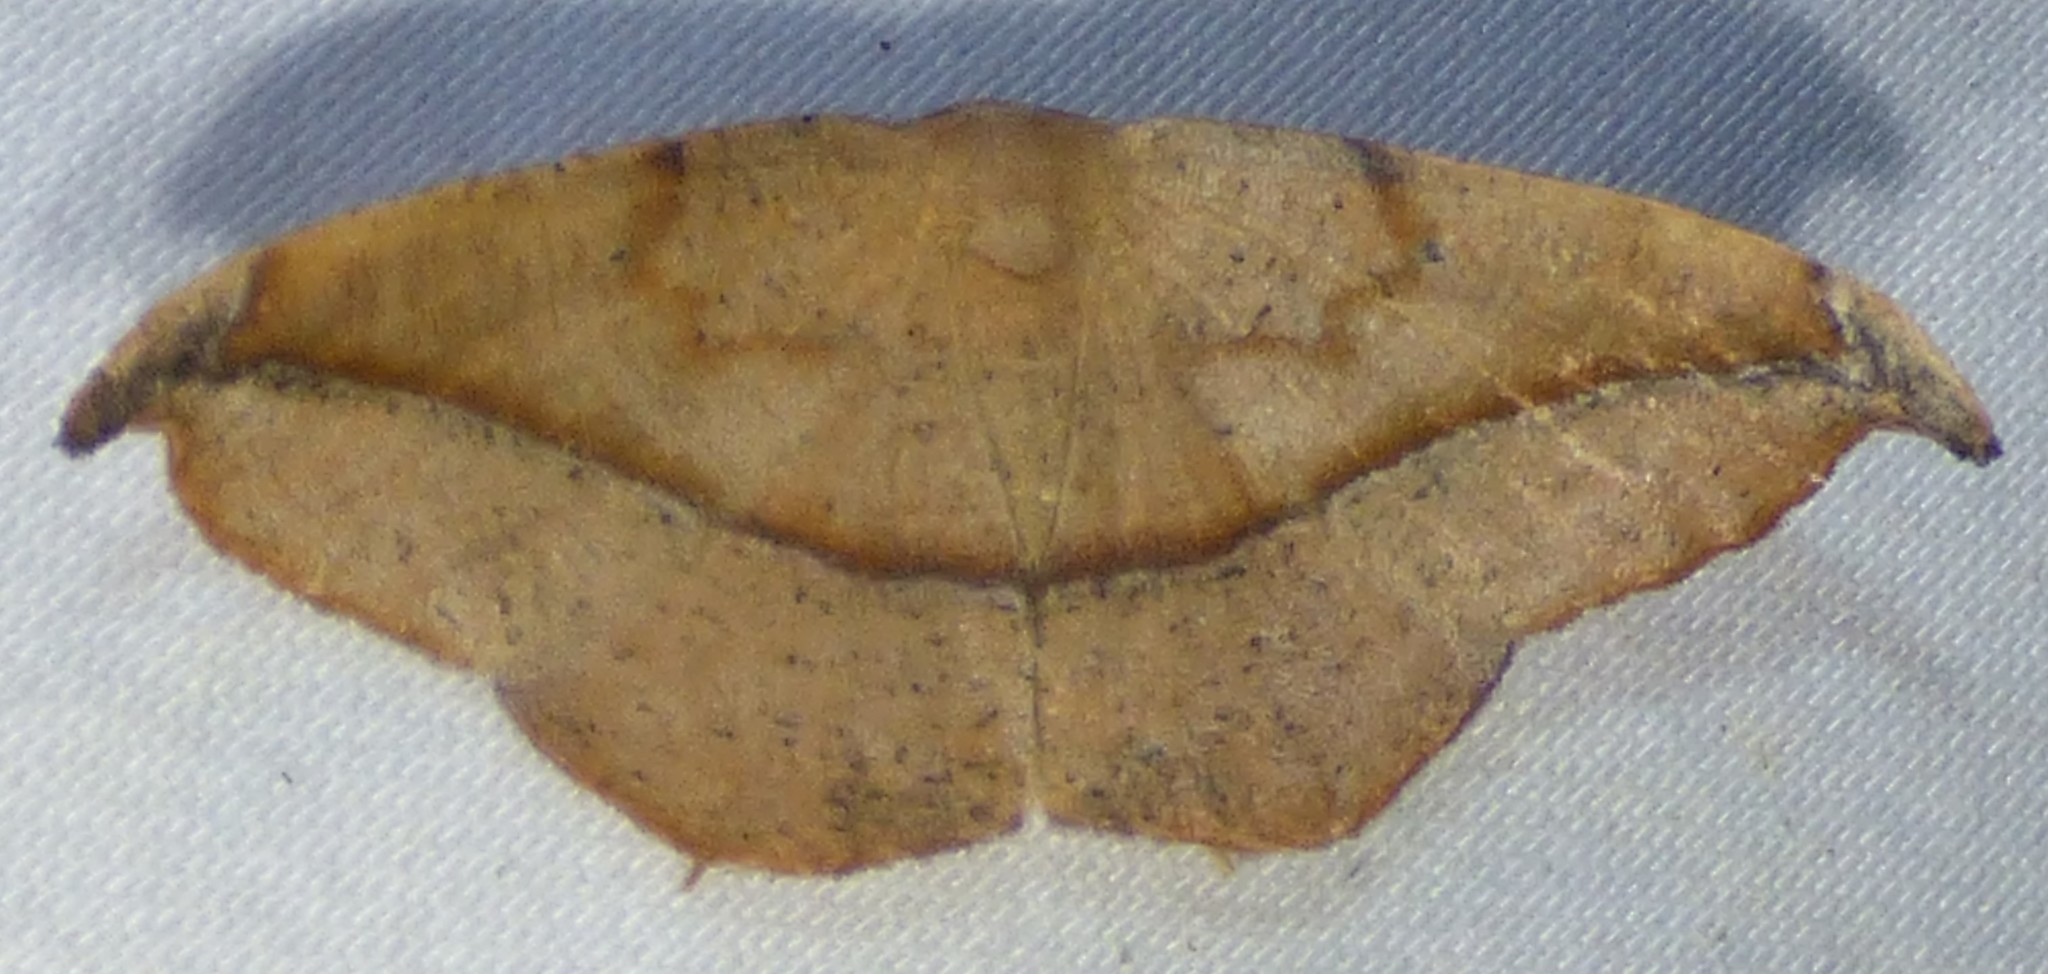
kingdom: Animalia
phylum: Arthropoda
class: Insecta
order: Lepidoptera
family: Geometridae
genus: Patalene
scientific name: Patalene olyzonaria
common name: Juniper geometer moth
